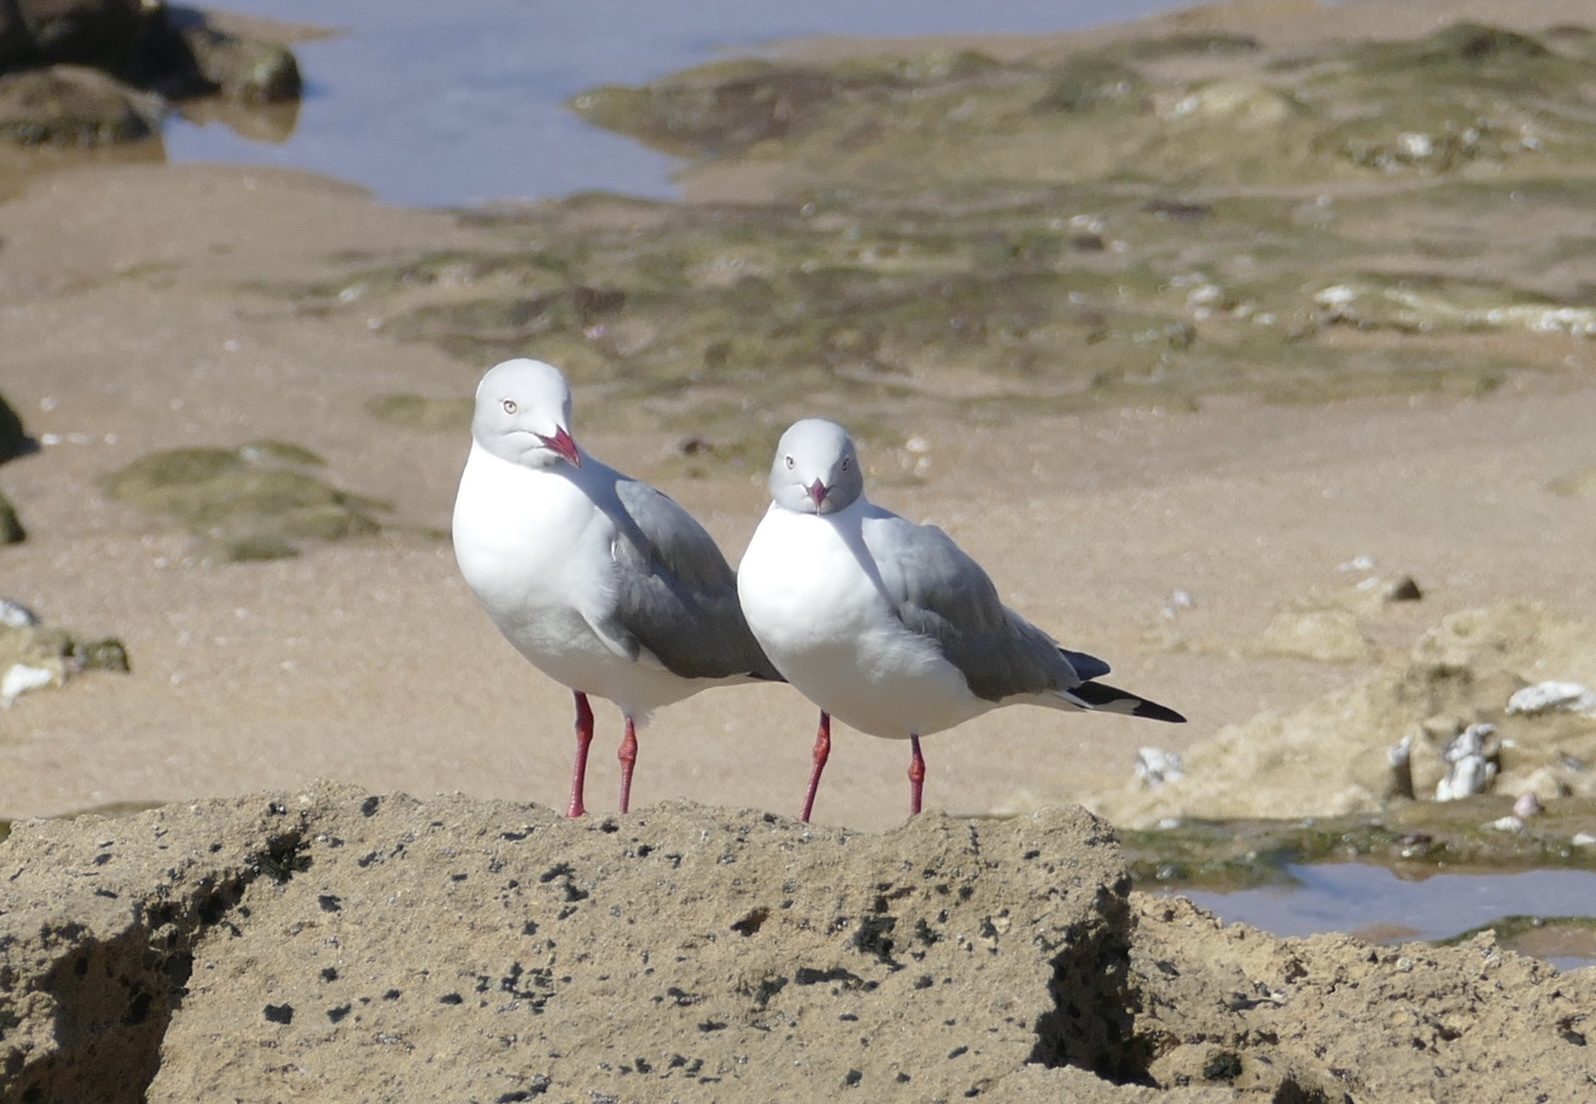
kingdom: Animalia
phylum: Chordata
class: Aves
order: Charadriiformes
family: Laridae
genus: Chroicocephalus
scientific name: Chroicocephalus cirrocephalus
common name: Grey-headed gull
